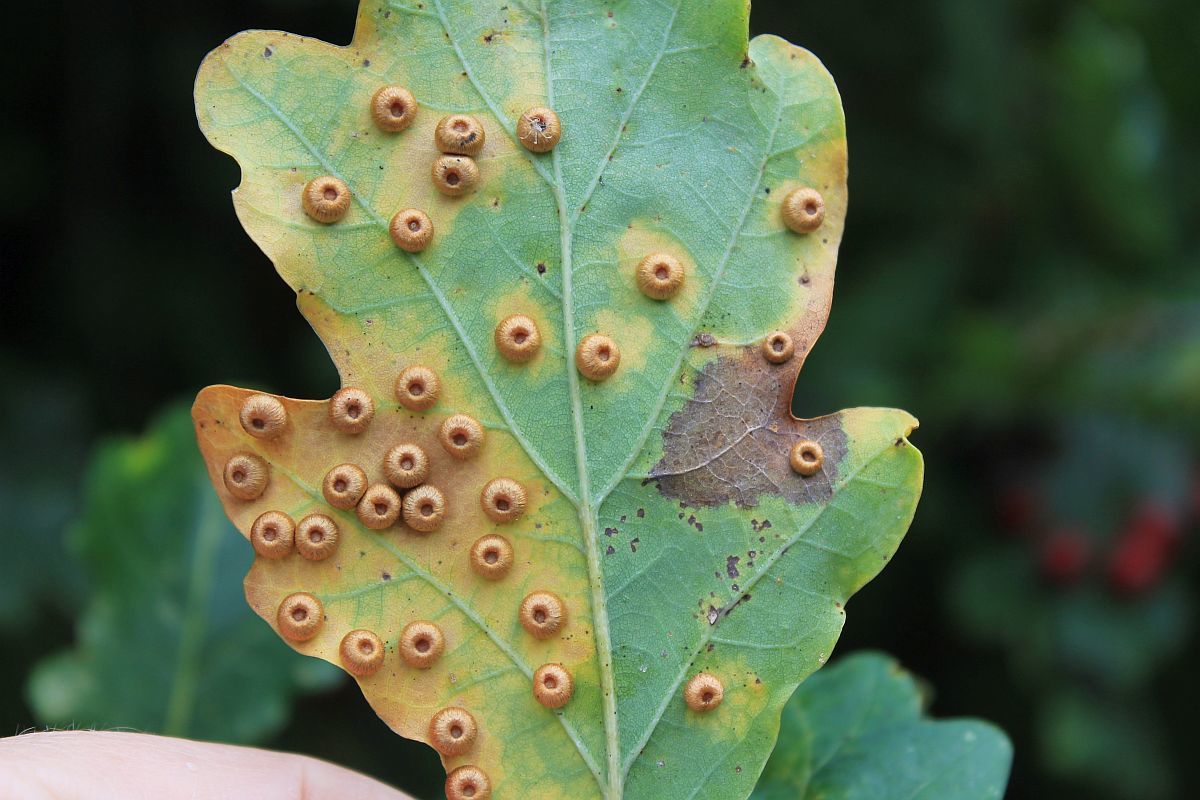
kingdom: Animalia
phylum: Arthropoda
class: Insecta
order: Hymenoptera
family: Cynipidae
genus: Neuroterus
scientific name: Neuroterus numismalis
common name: Silk-button spangle gall
